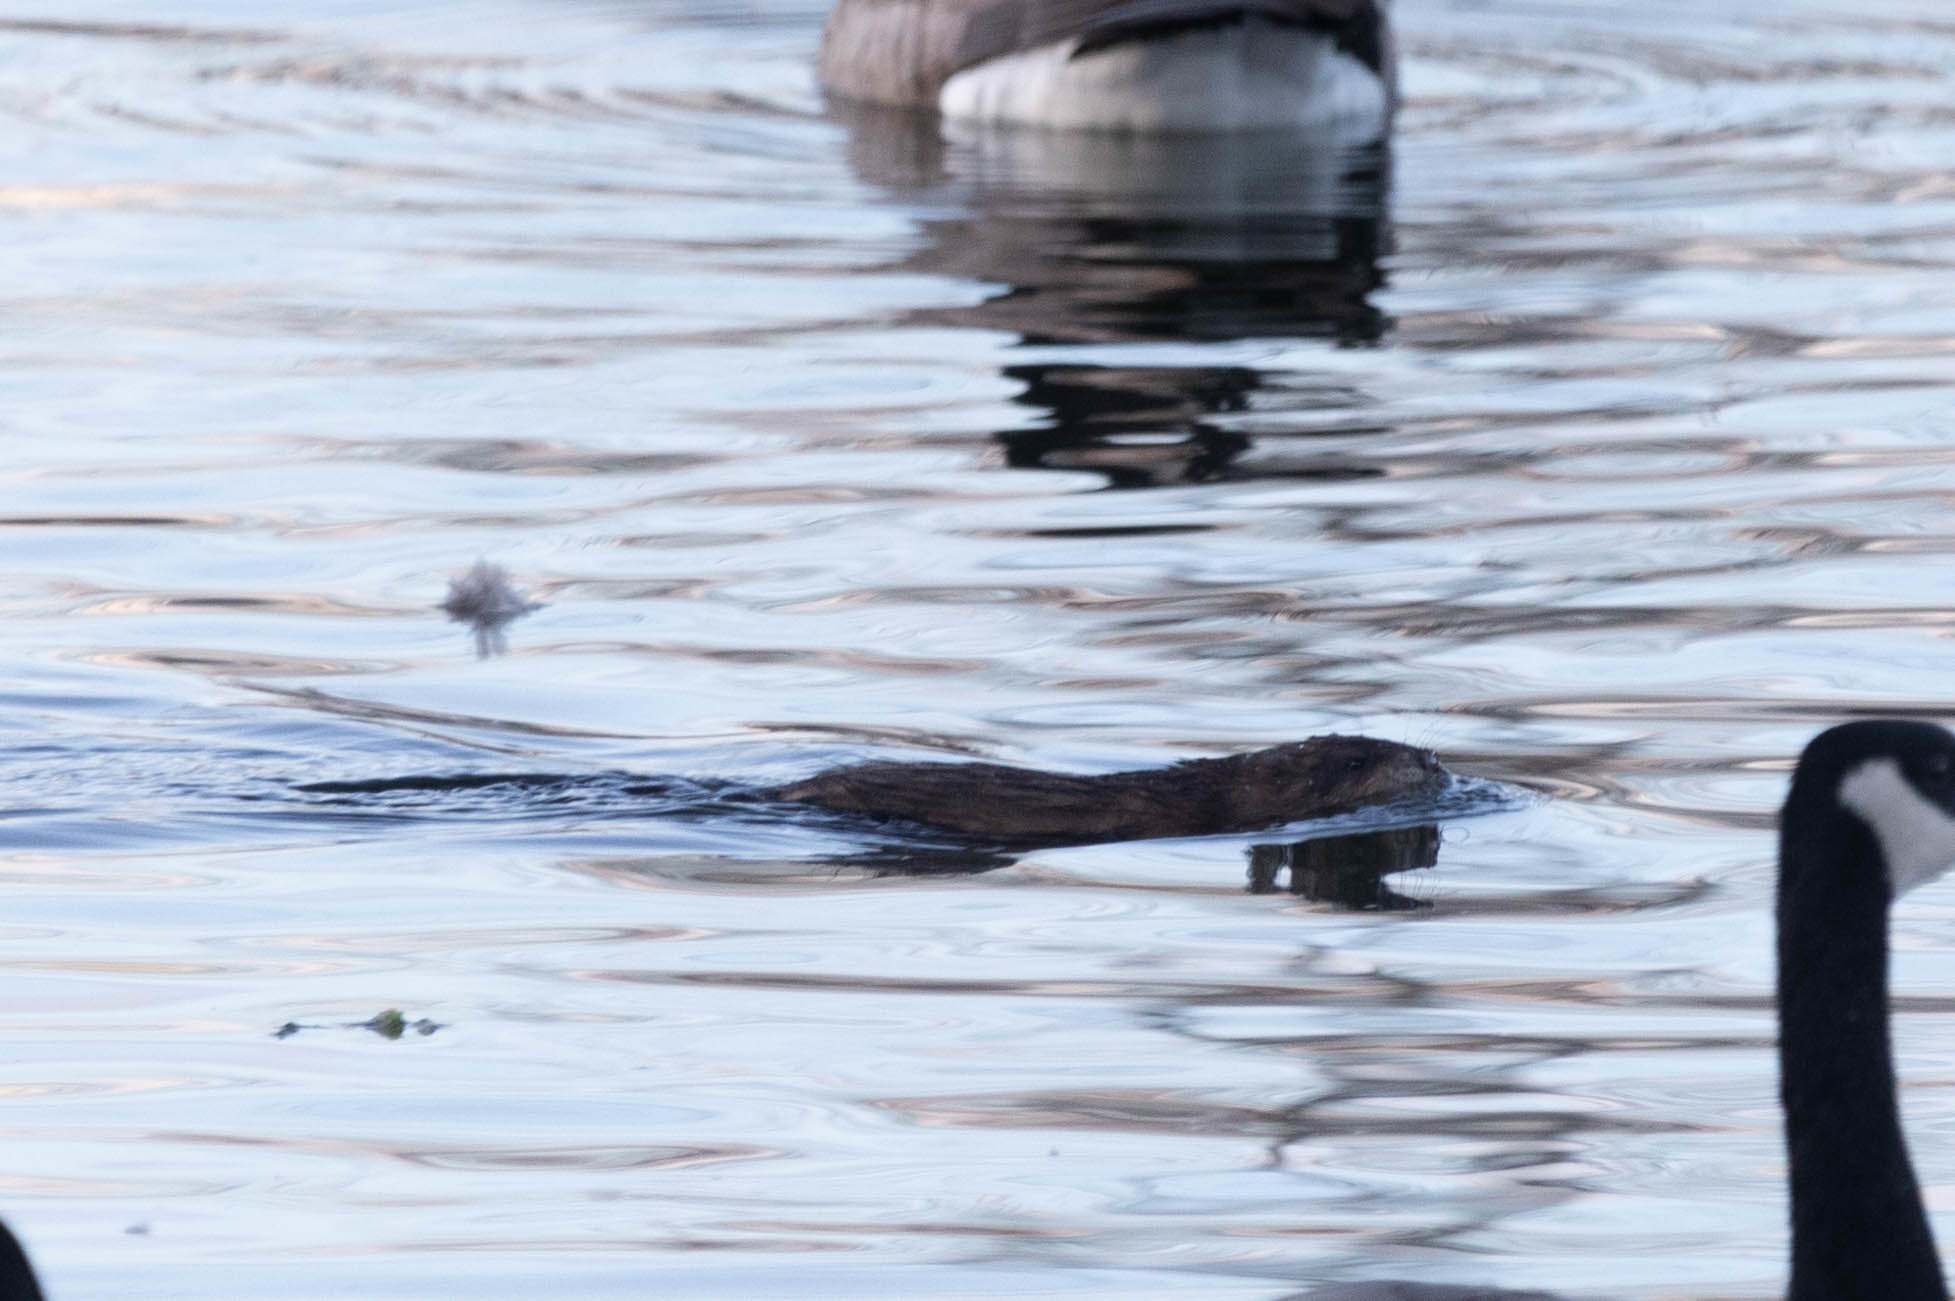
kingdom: Animalia
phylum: Chordata
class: Mammalia
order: Rodentia
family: Cricetidae
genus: Ondatra
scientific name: Ondatra zibethicus
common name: Muskrat
